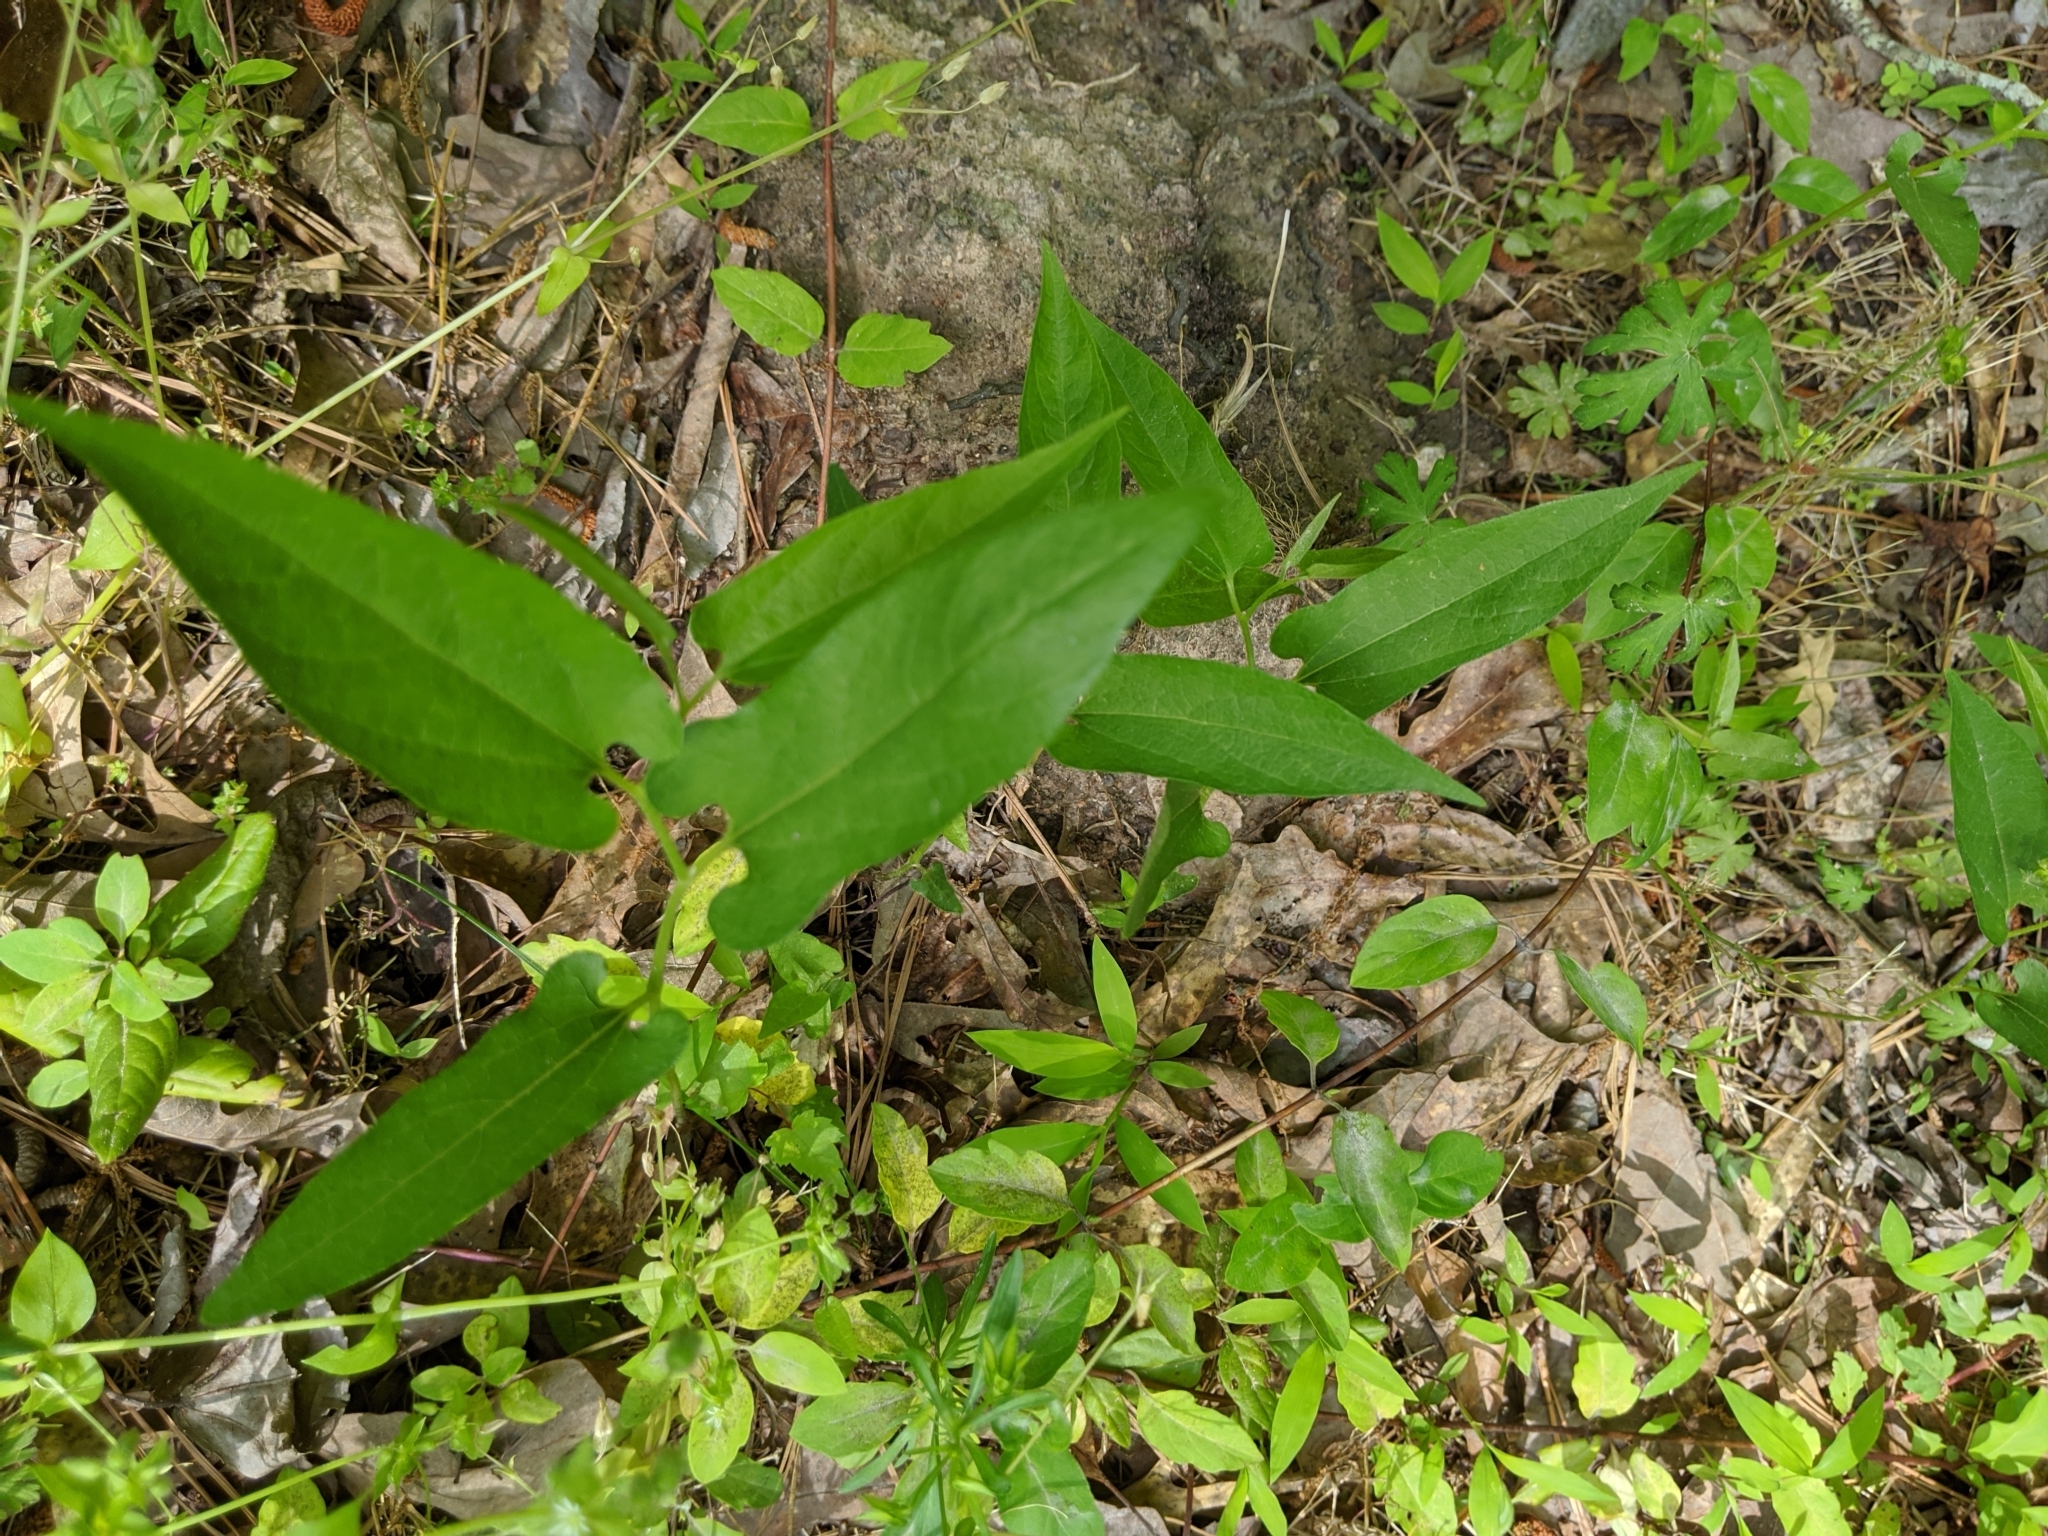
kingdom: Plantae
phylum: Tracheophyta
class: Magnoliopsida
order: Piperales
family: Aristolochiaceae
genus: Endodeca
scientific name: Endodeca serpentaria
